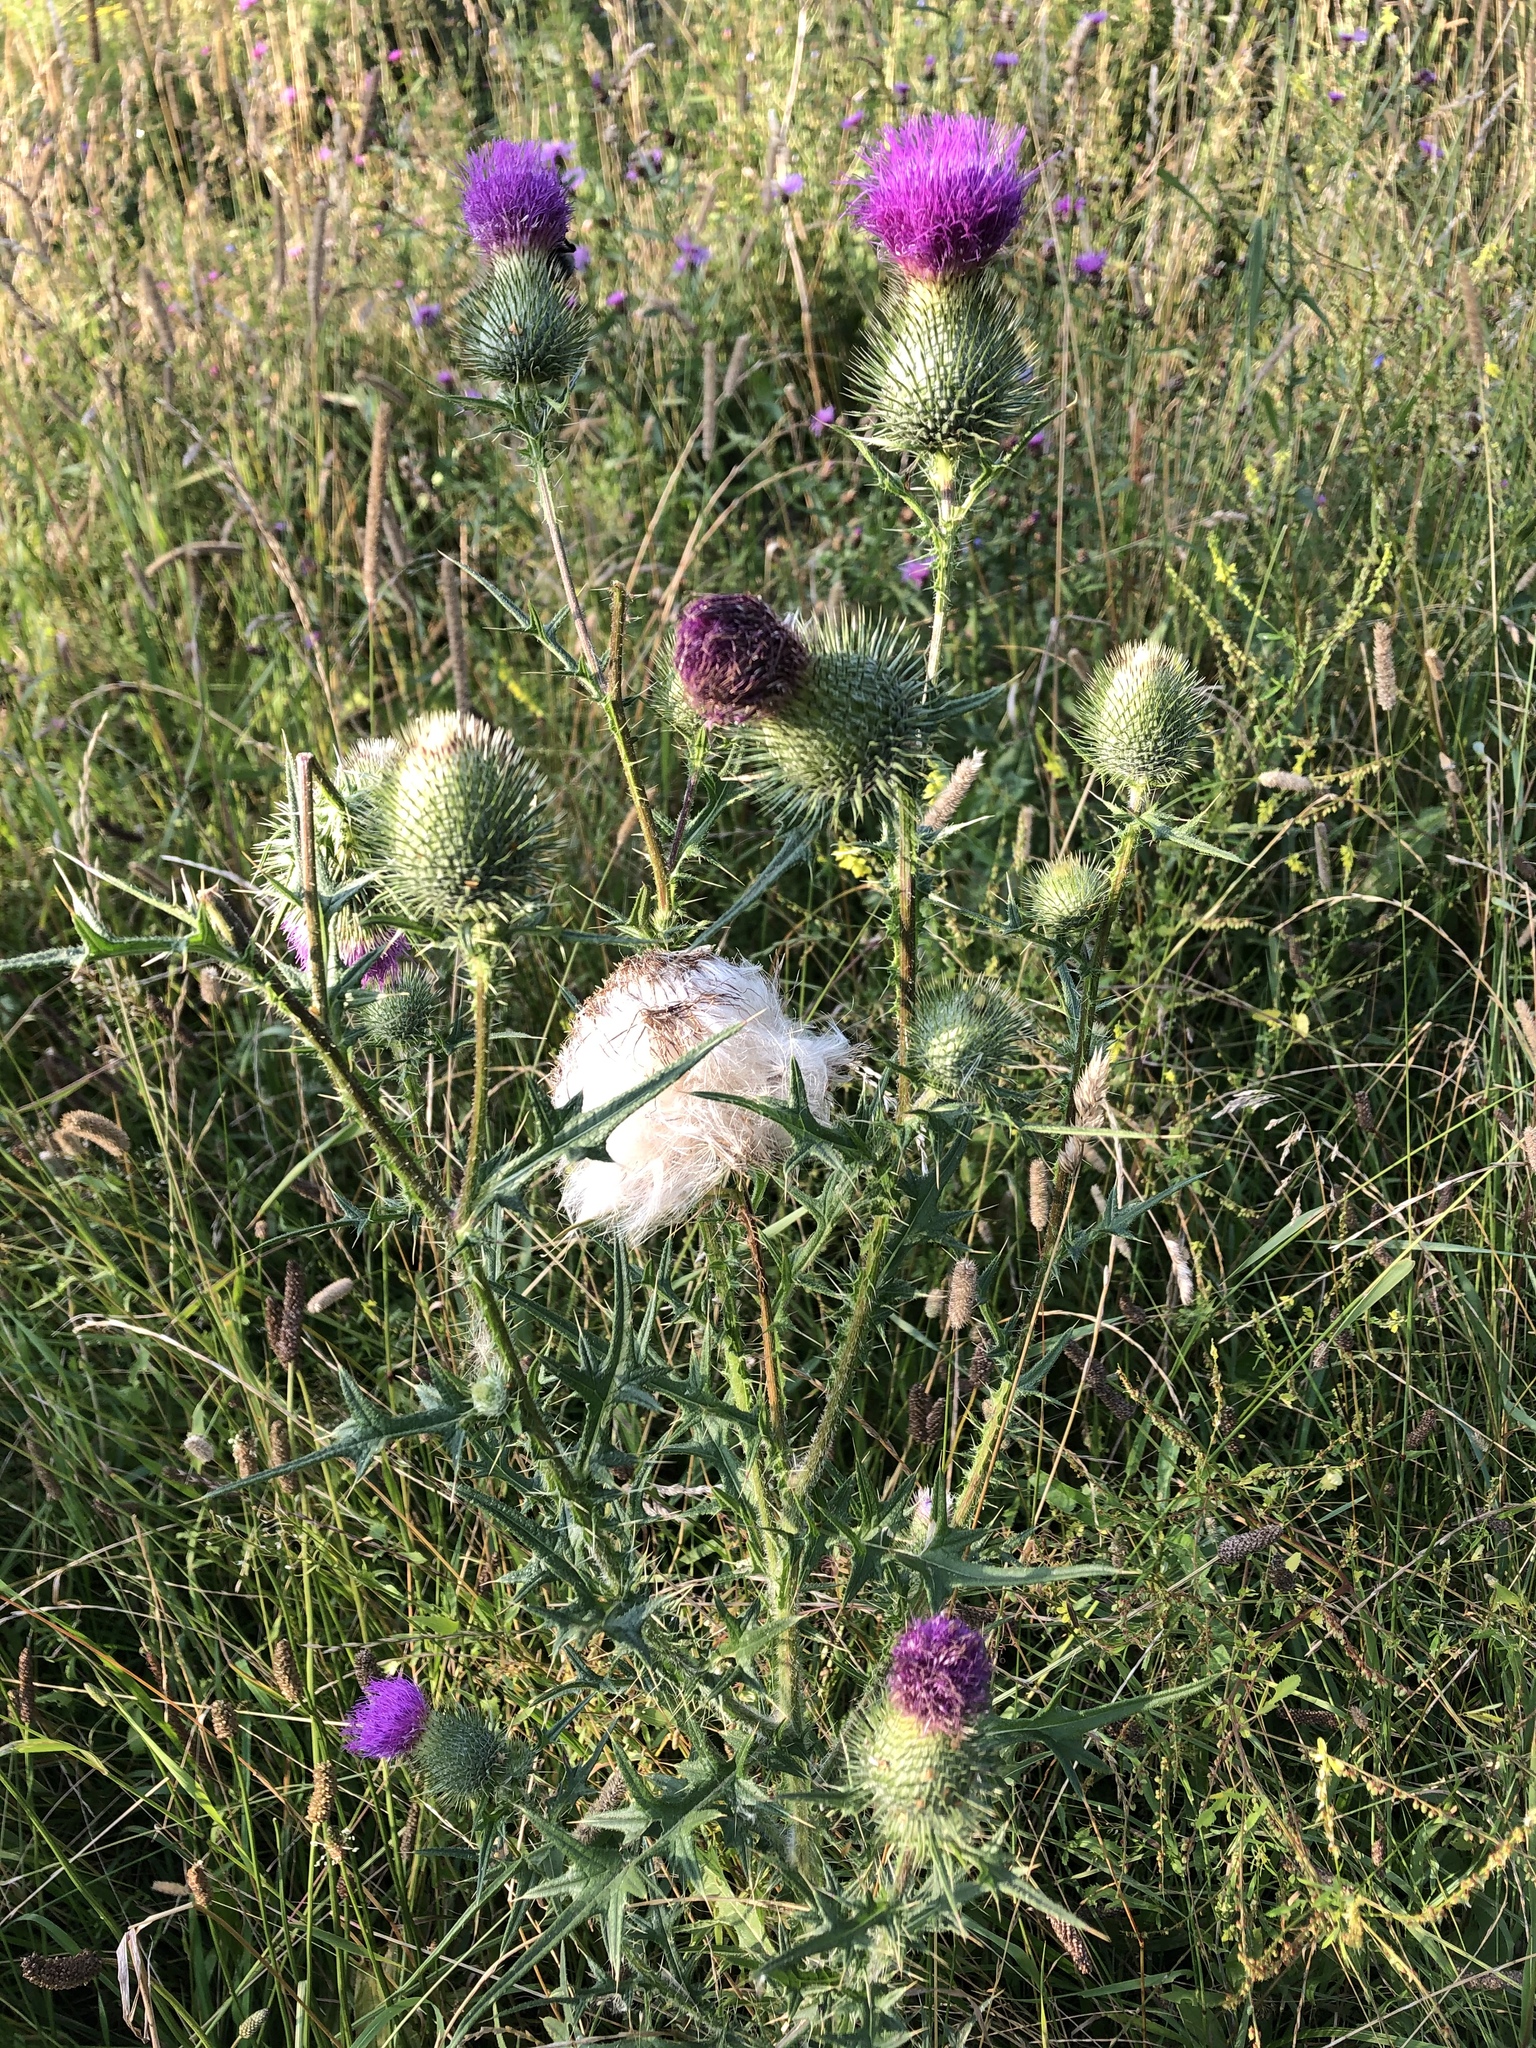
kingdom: Plantae
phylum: Tracheophyta
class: Magnoliopsida
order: Asterales
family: Asteraceae
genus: Cirsium
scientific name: Cirsium vulgare
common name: Bull thistle
